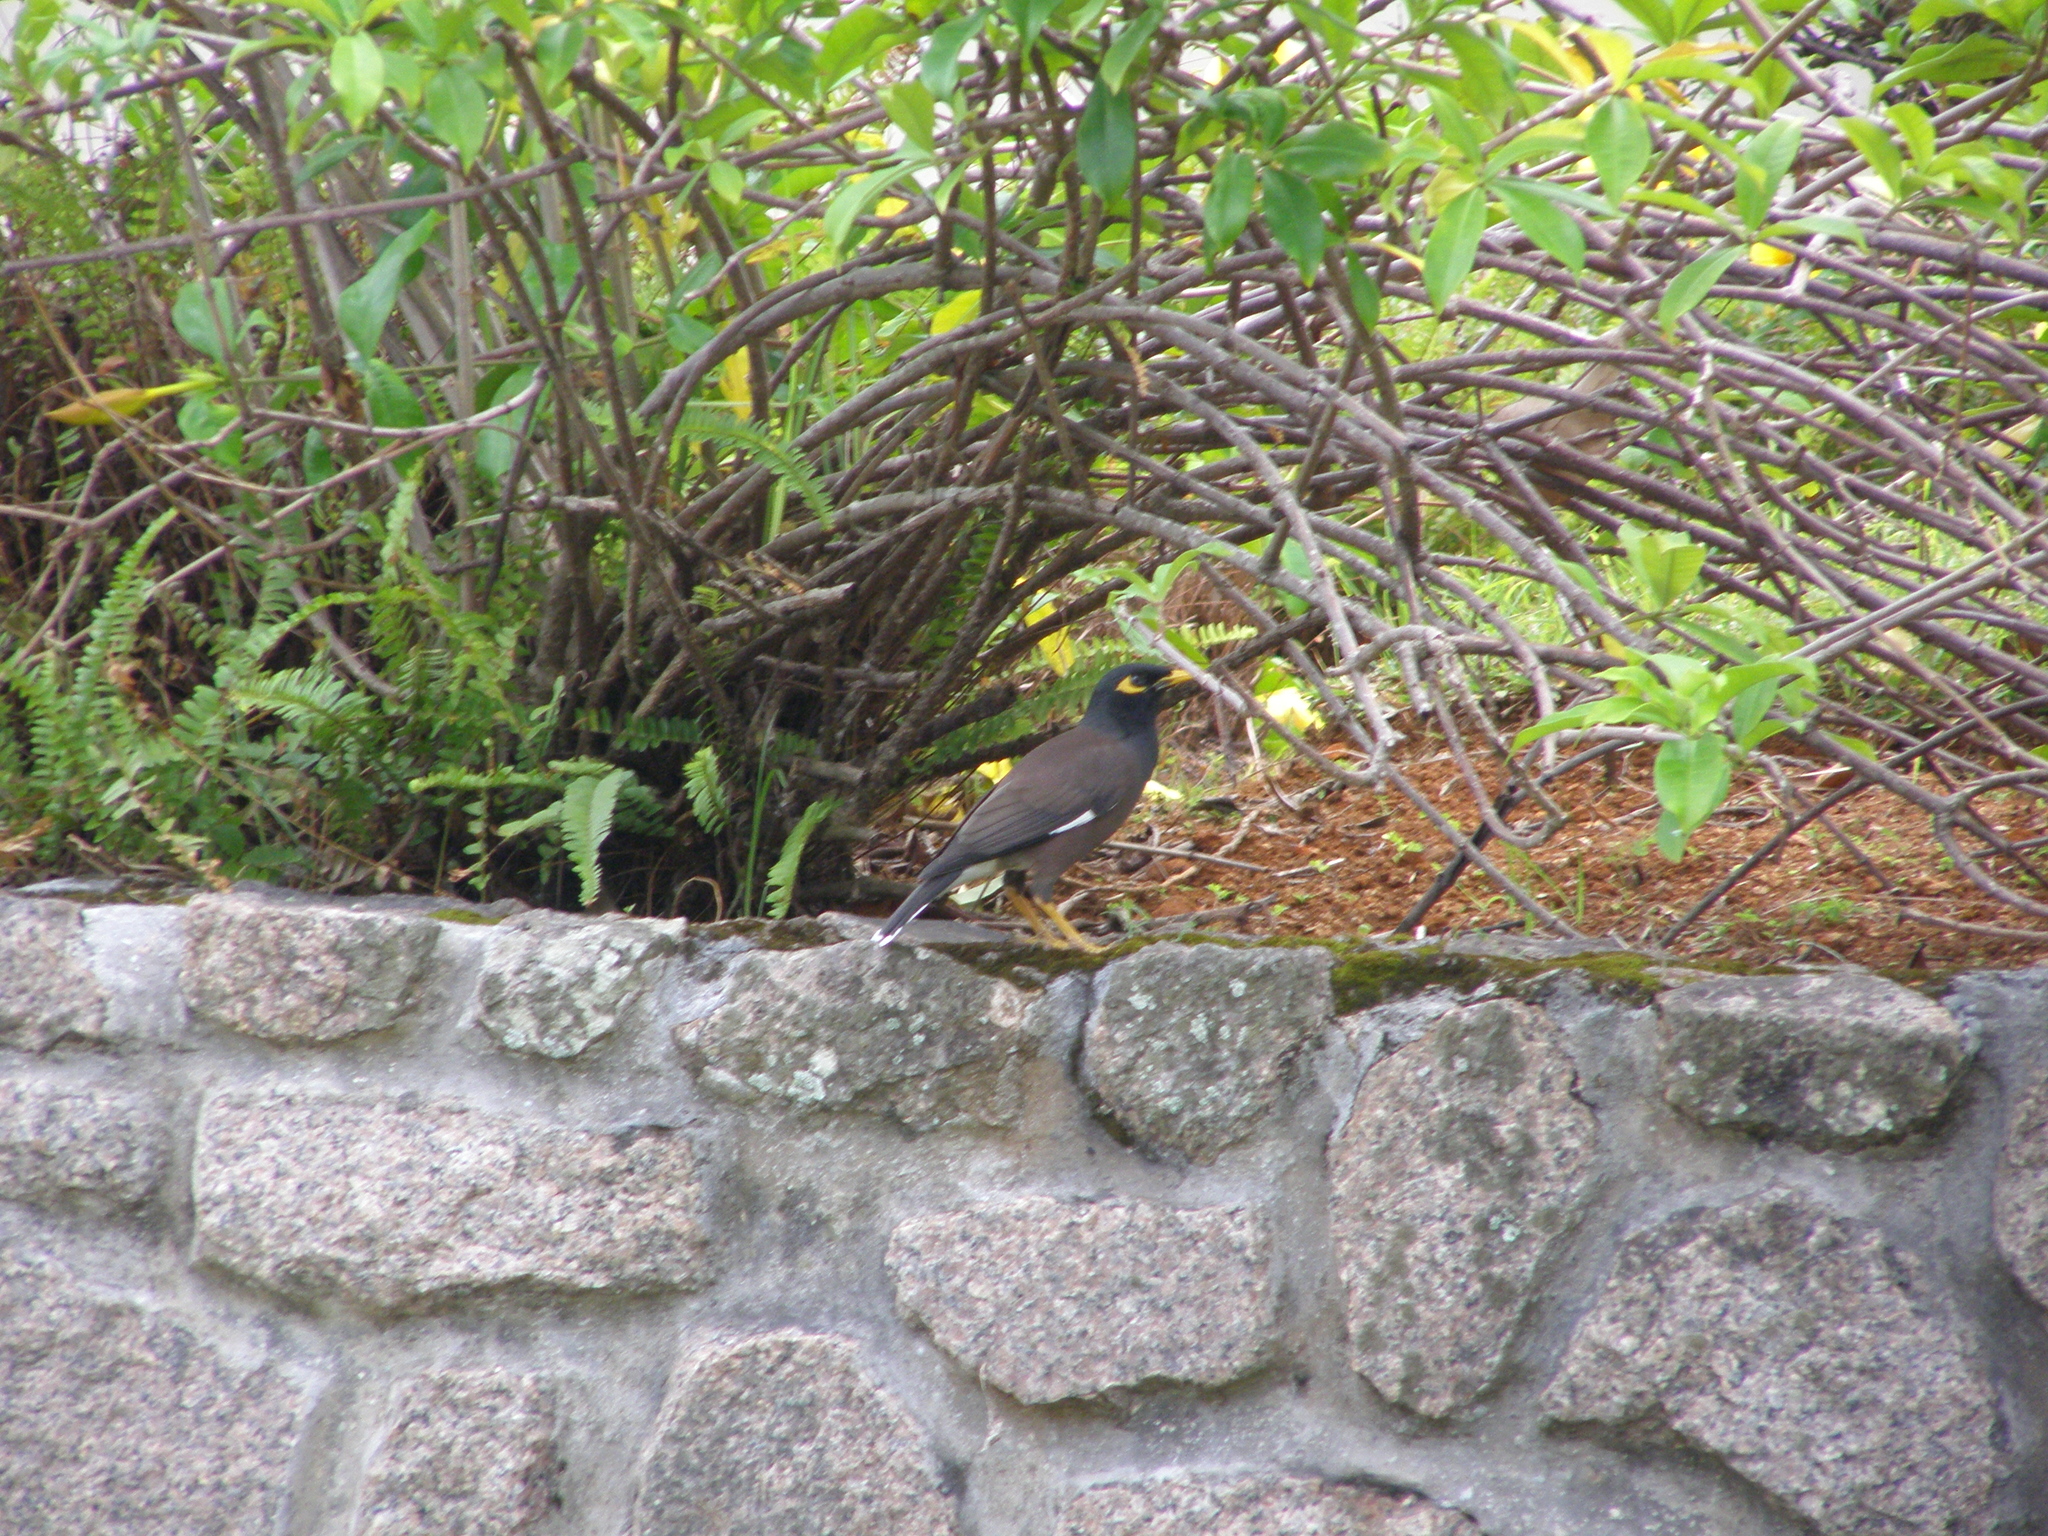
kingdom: Animalia
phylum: Chordata
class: Aves
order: Passeriformes
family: Sturnidae
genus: Acridotheres
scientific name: Acridotheres tristis
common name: Common myna
